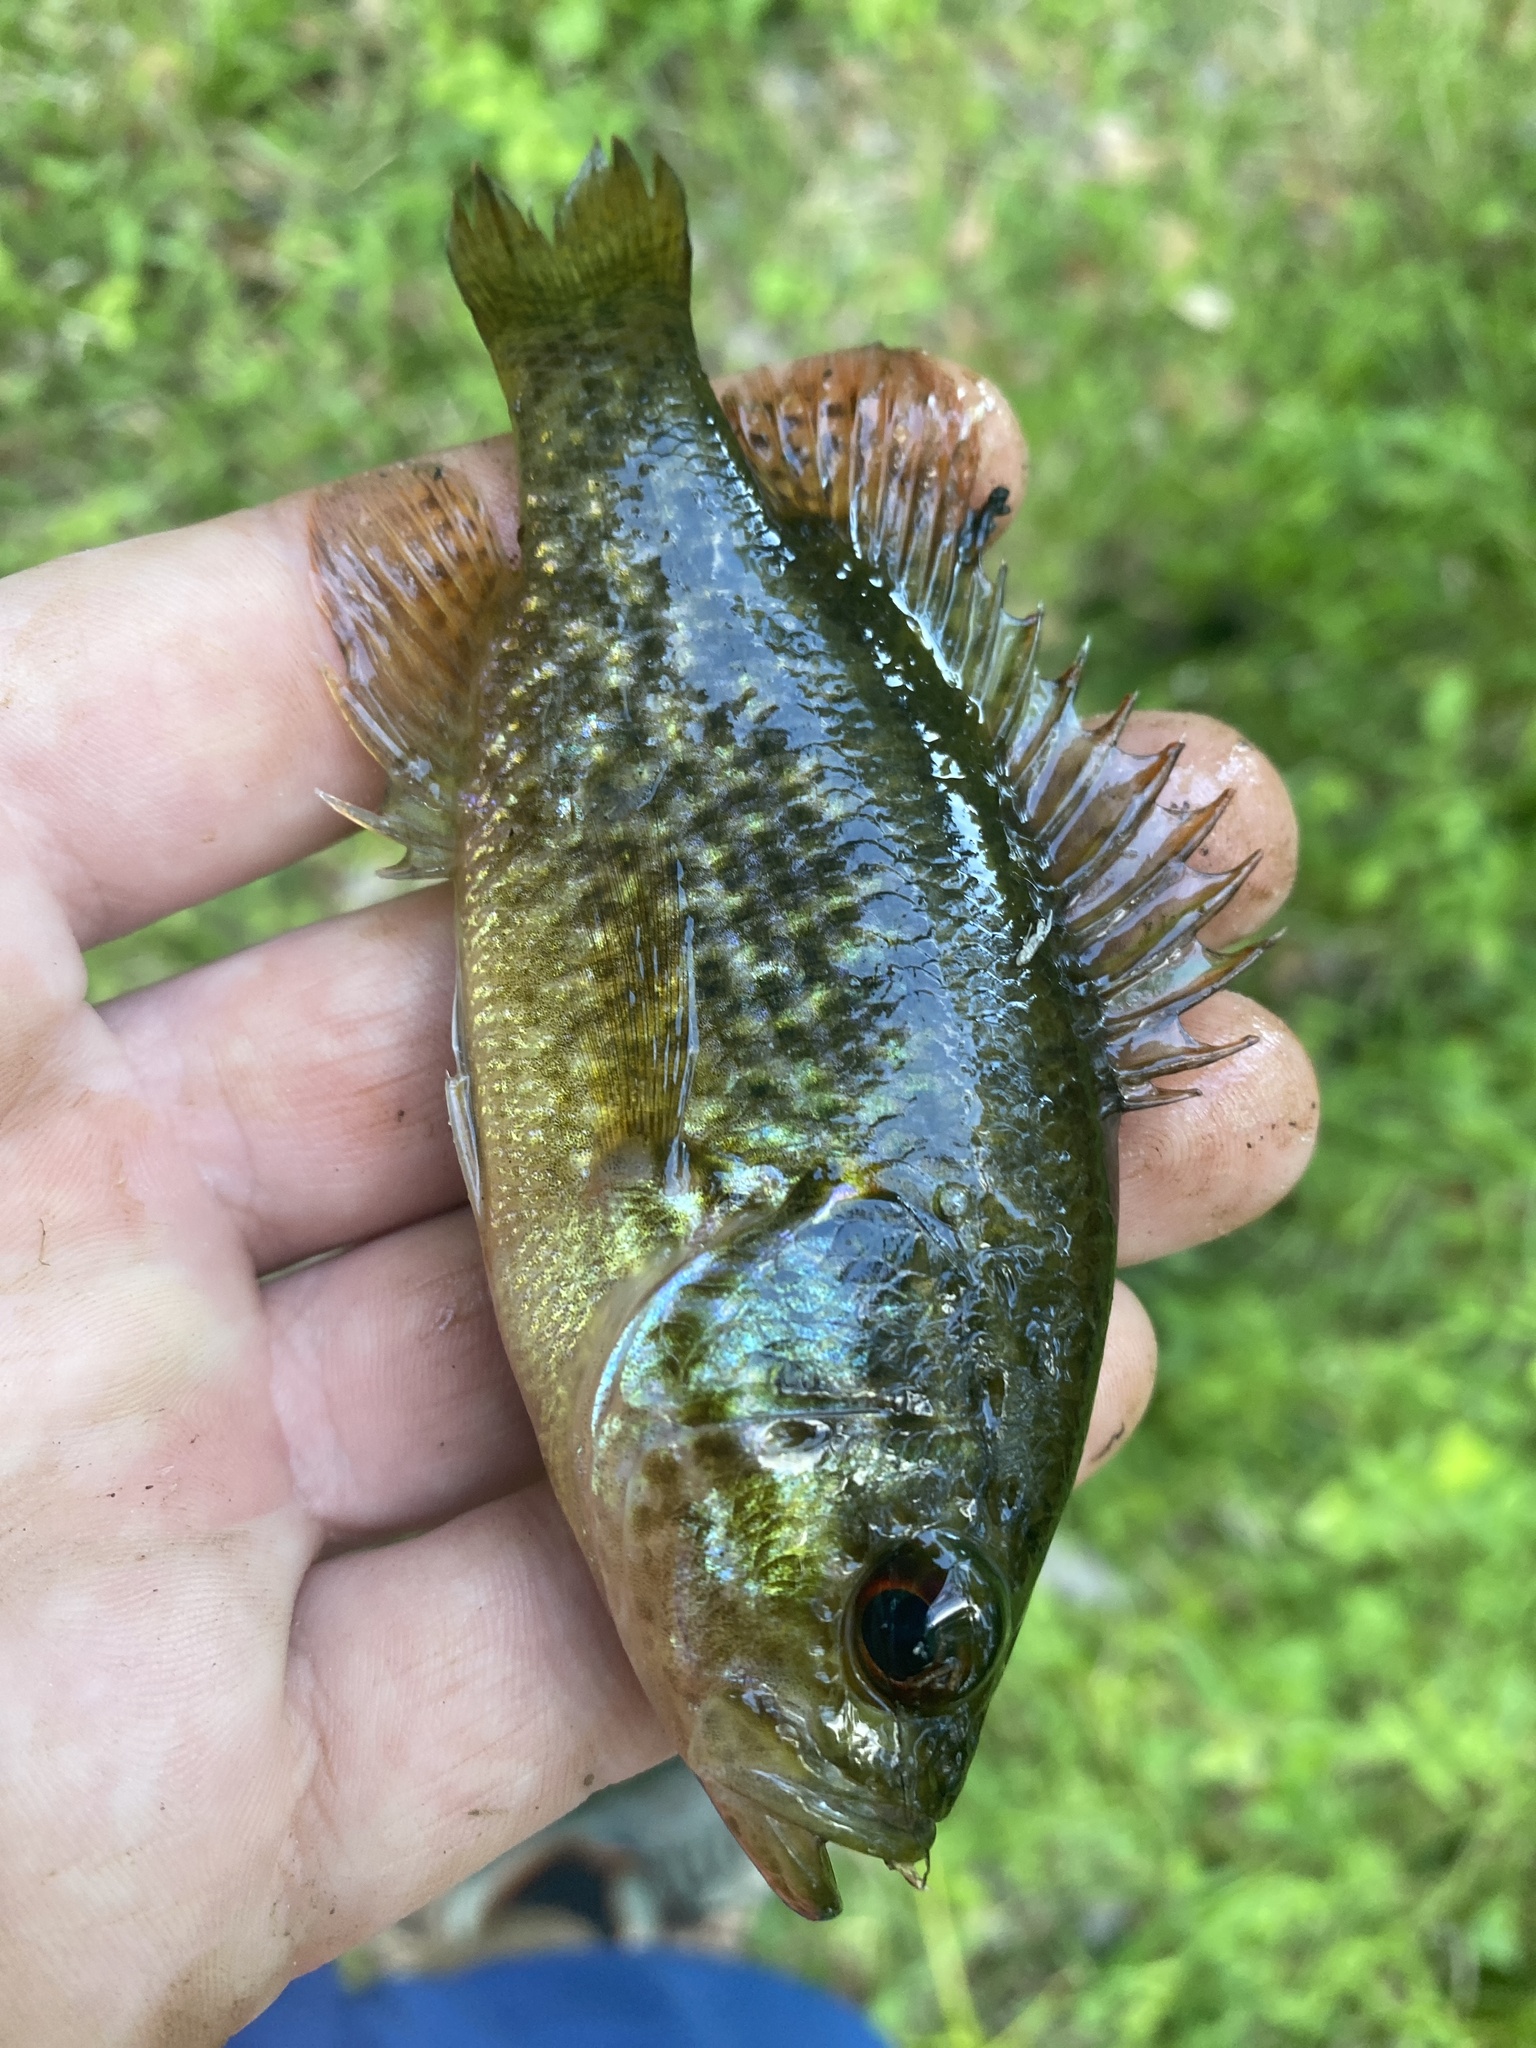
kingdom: Animalia
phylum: Chordata
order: Perciformes
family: Centrarchidae
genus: Lepomis
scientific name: Lepomis gulosus
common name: Warmouth
